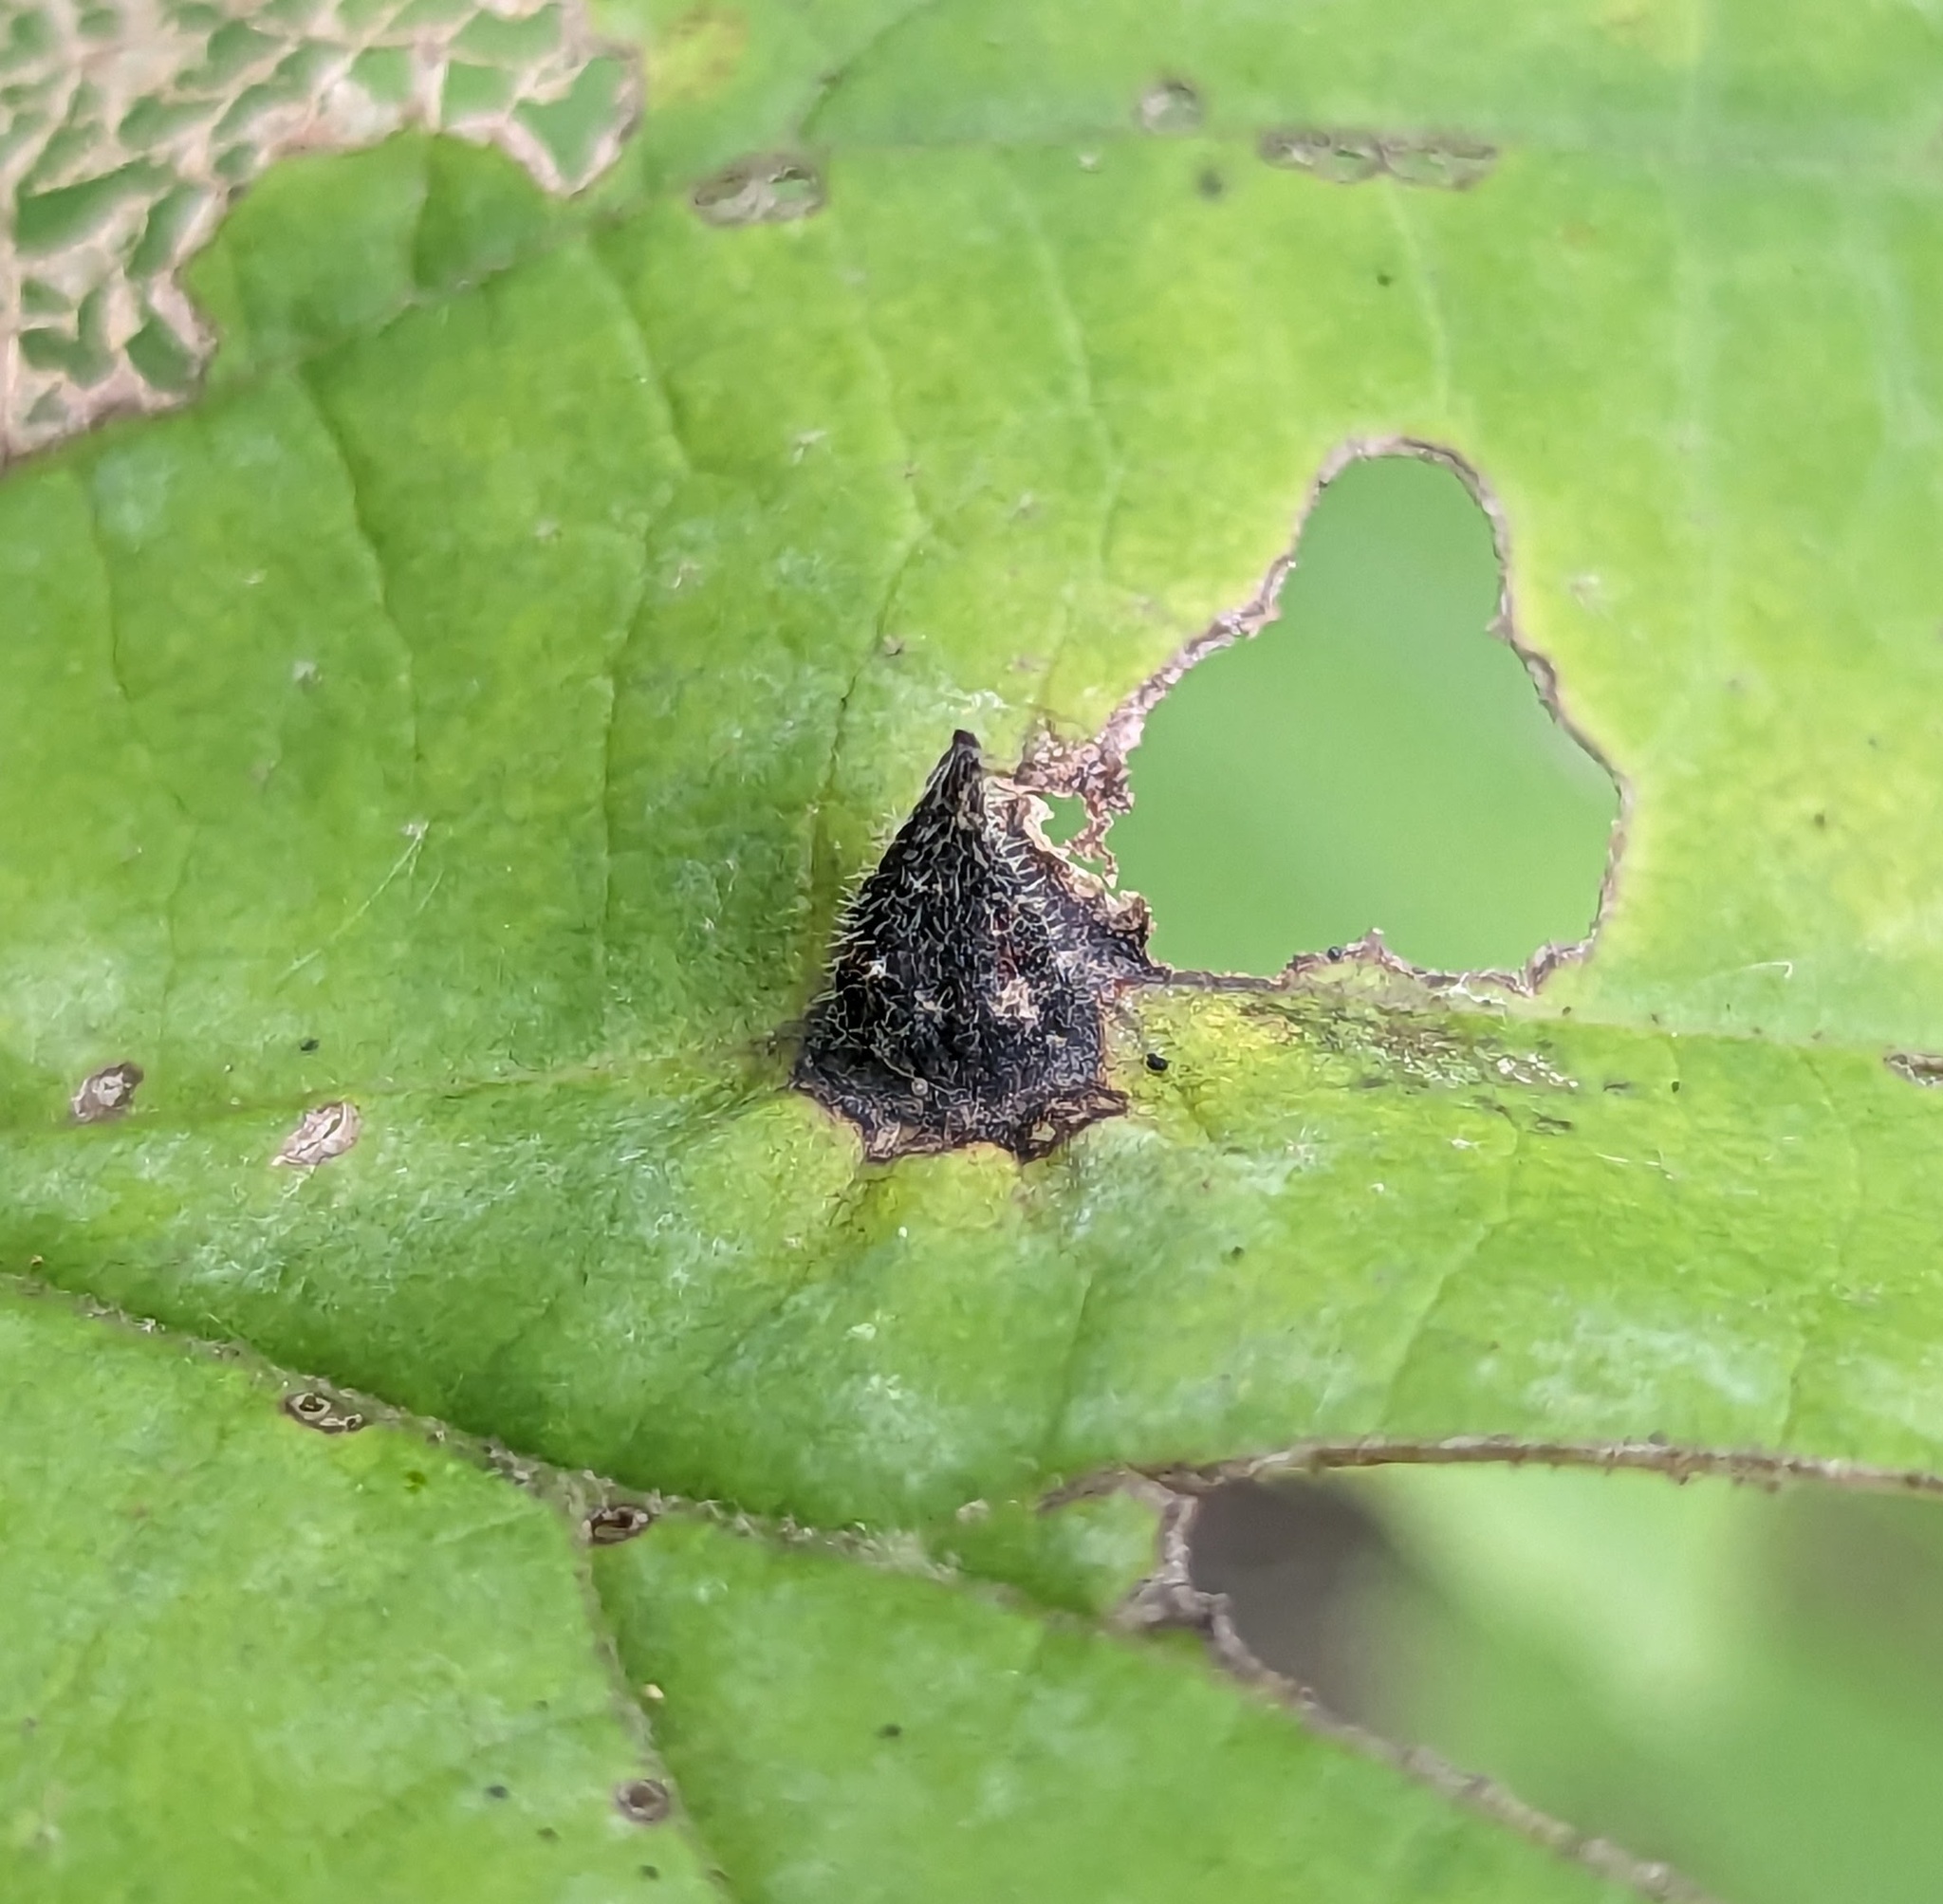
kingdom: Animalia
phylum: Arthropoda
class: Insecta
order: Hemiptera
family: Aphididae
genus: Hormaphis
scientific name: Hormaphis hamamelidis
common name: Witch-hazel cone gall aphid
